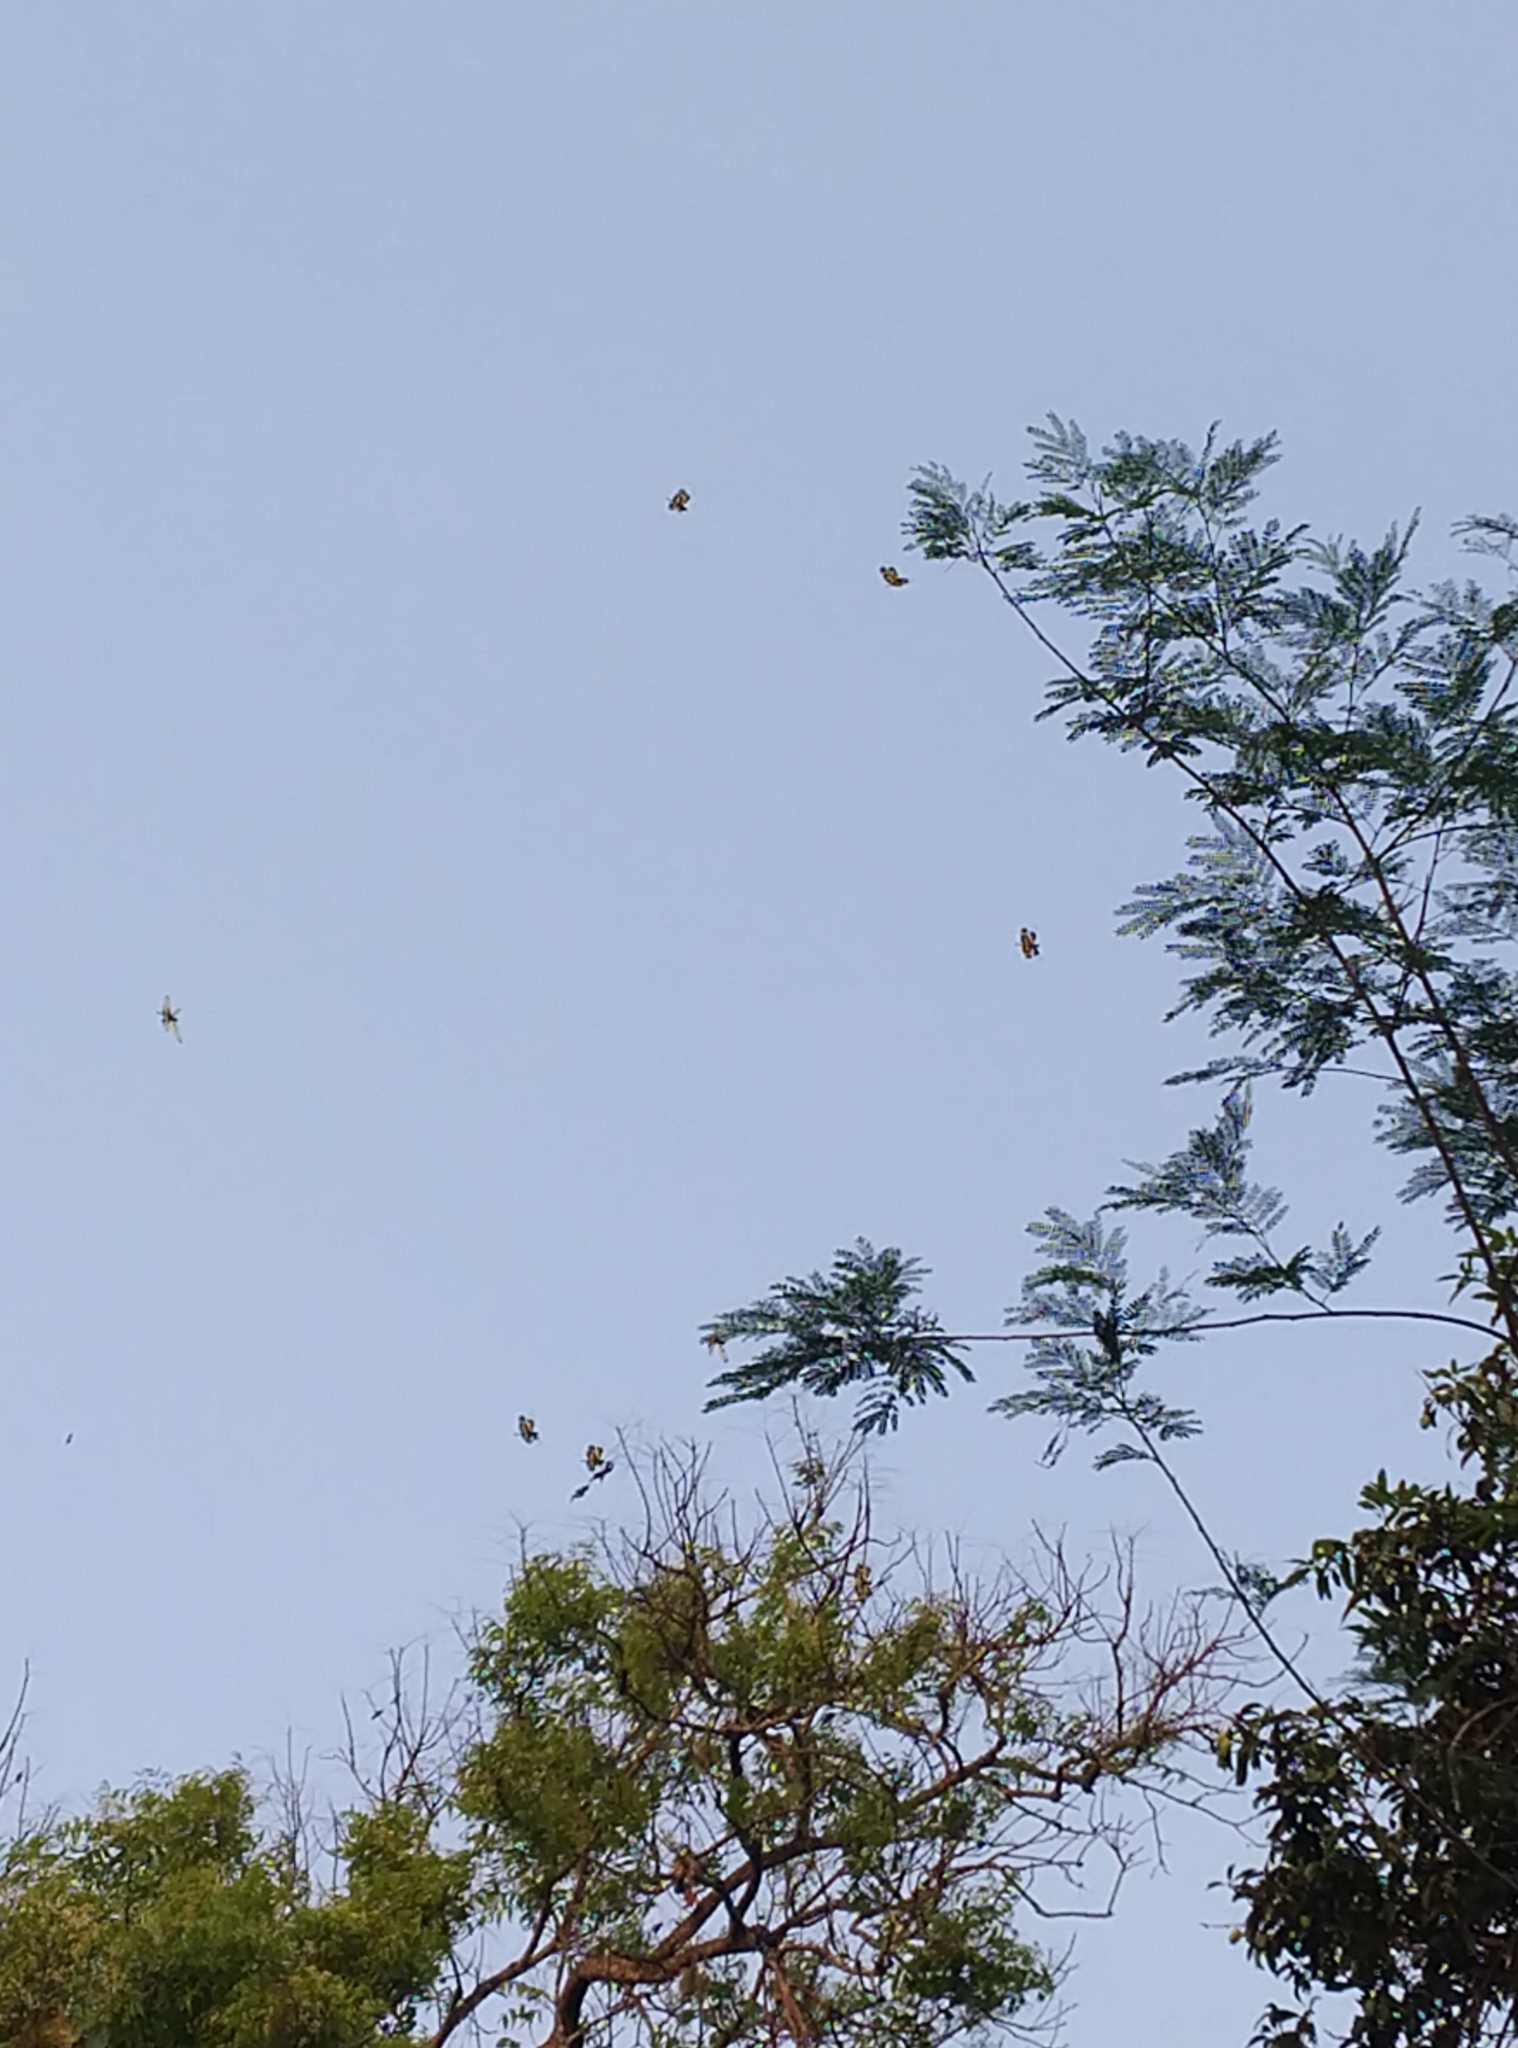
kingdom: Animalia
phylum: Arthropoda
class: Insecta
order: Odonata
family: Libellulidae
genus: Rhyothemis
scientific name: Rhyothemis variegata
